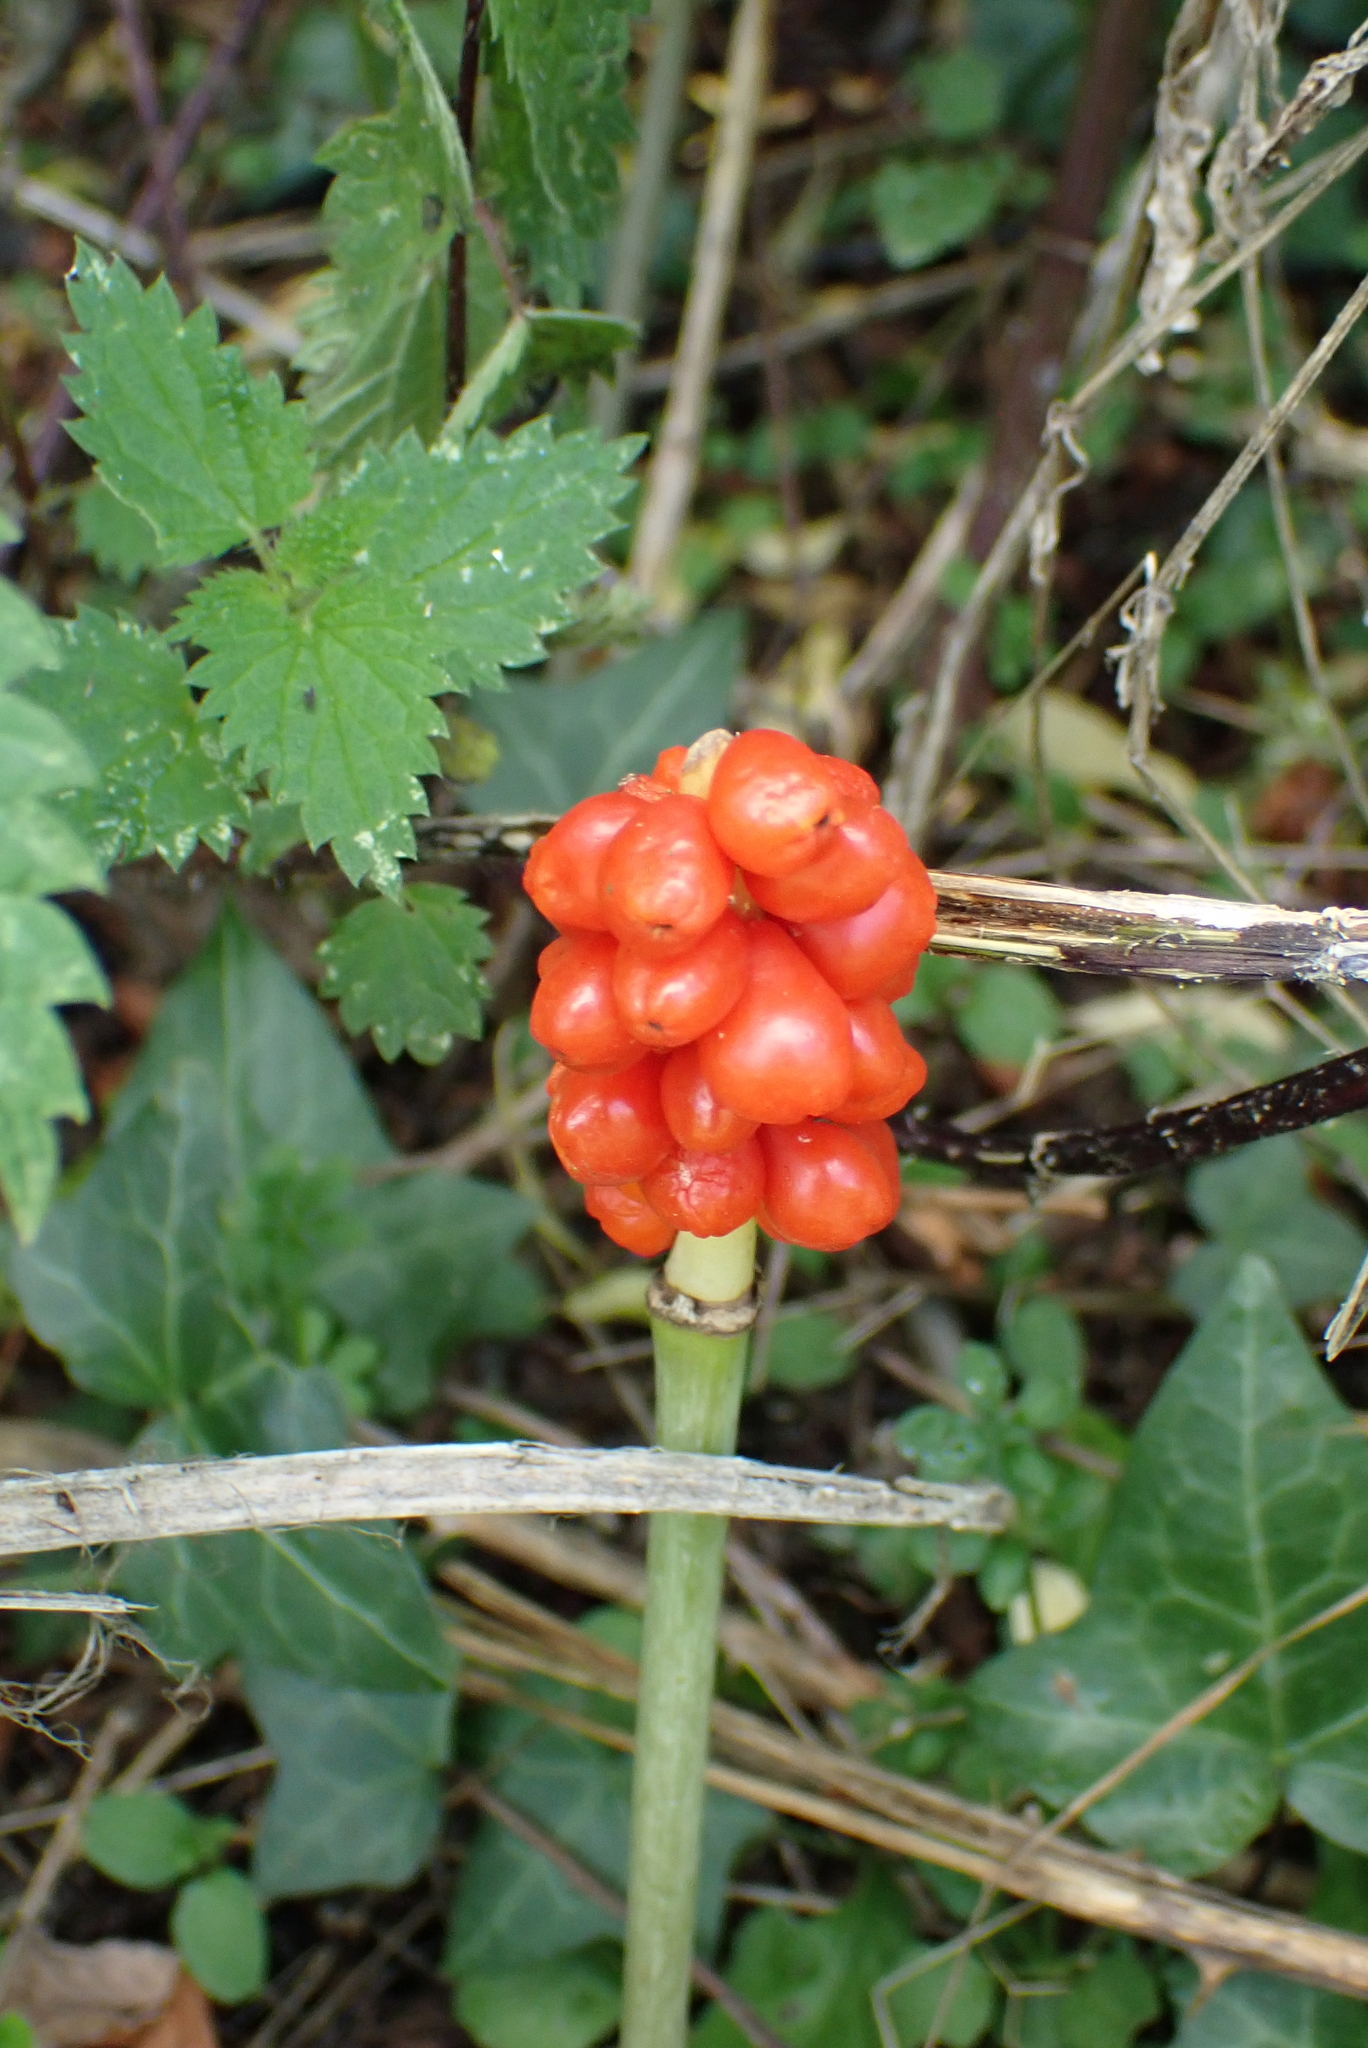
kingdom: Plantae
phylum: Tracheophyta
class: Liliopsida
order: Alismatales
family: Araceae
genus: Arum
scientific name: Arum maculatum
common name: Lords-and-ladies
